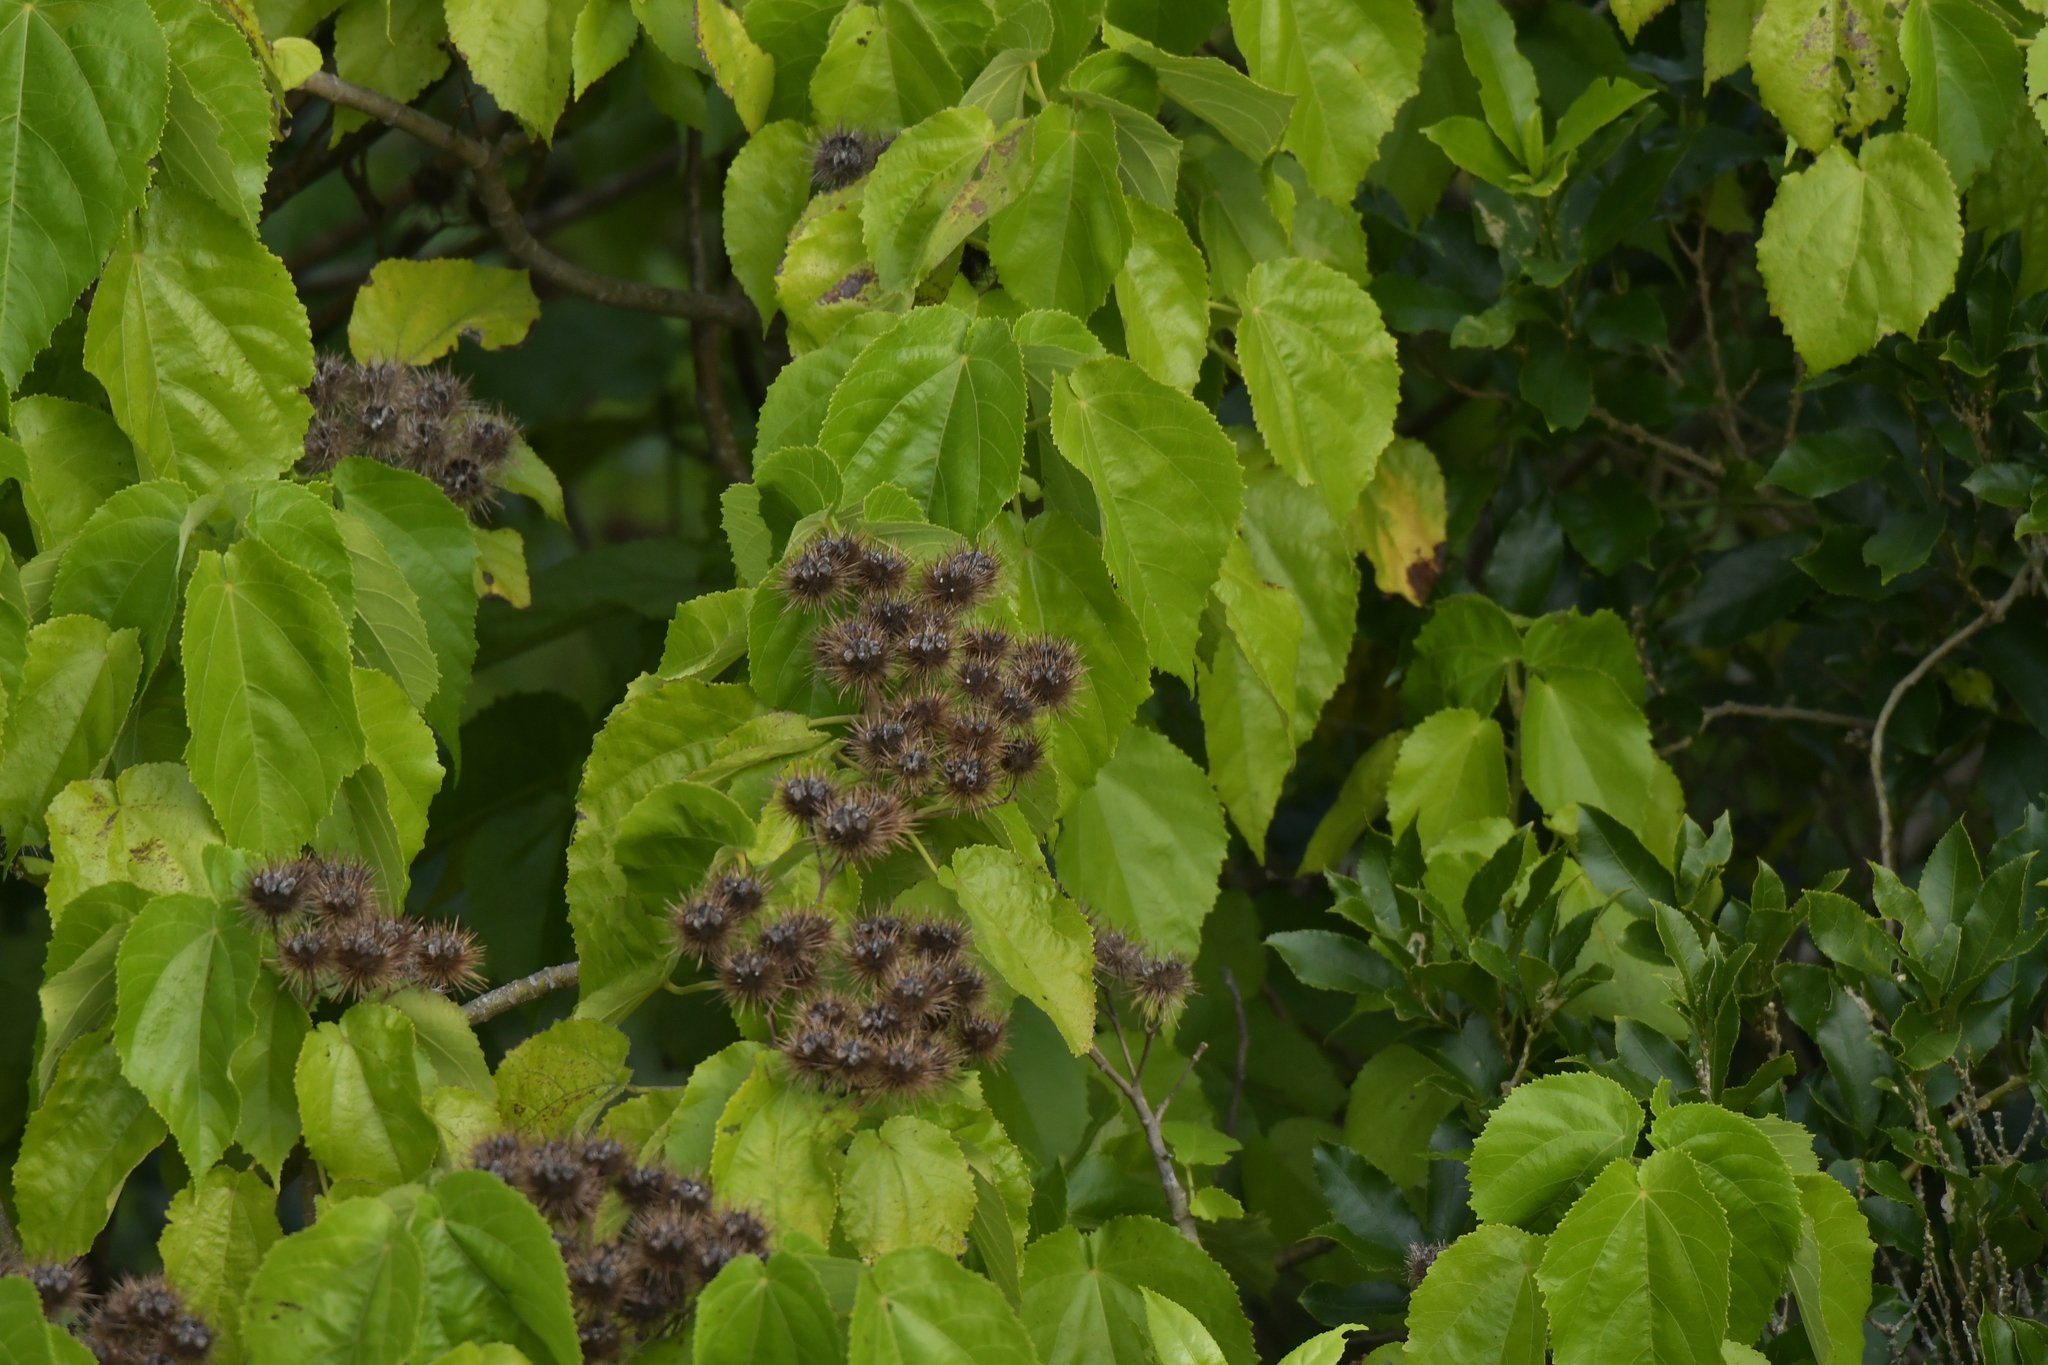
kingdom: Plantae
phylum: Tracheophyta
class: Magnoliopsida
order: Malvales
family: Malvaceae
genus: Entelea
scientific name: Entelea arborescens
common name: New zealand-mulberry
